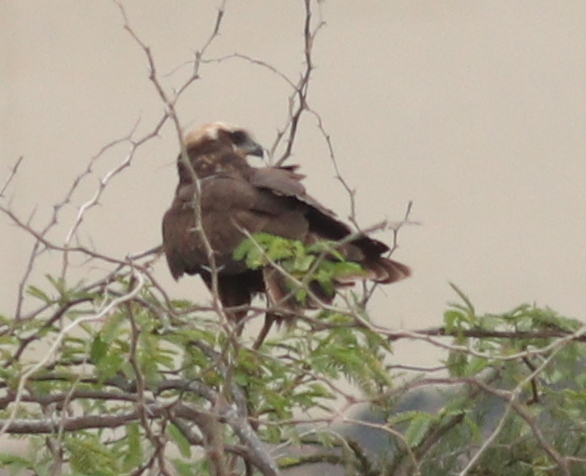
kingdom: Animalia
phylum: Chordata
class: Aves
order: Accipitriformes
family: Accipitridae
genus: Circus
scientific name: Circus aeruginosus
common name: Western marsh harrier
